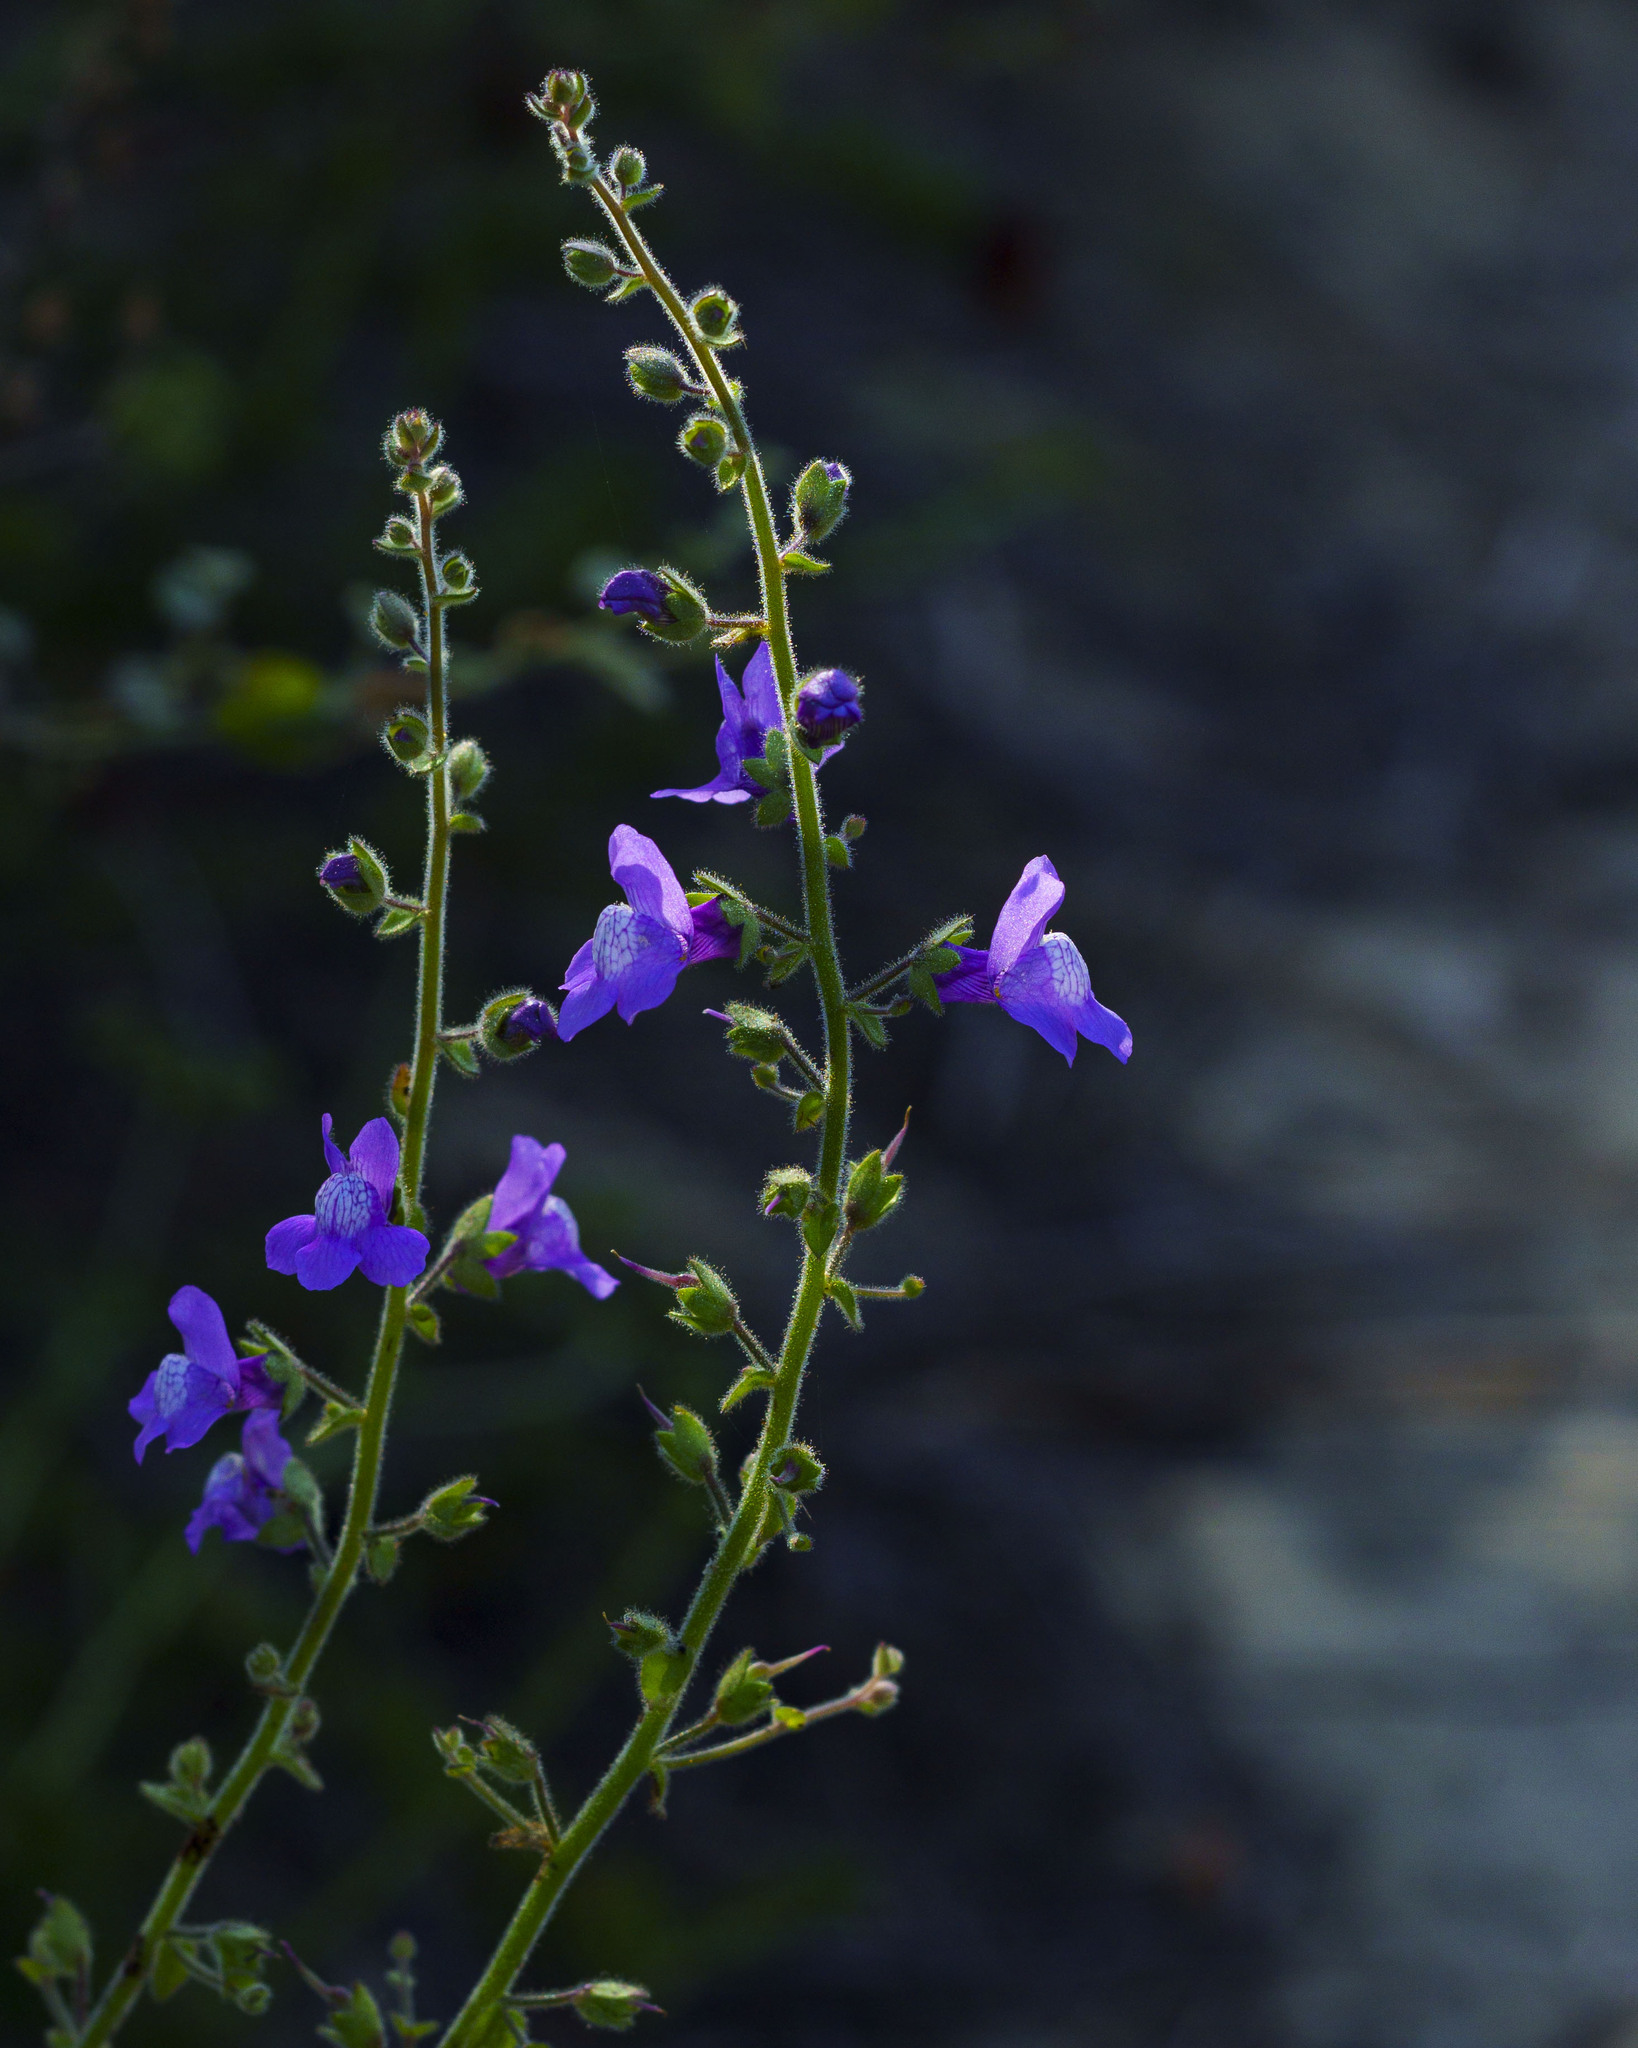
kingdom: Plantae
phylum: Tracheophyta
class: Magnoliopsida
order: Lamiales
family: Plantaginaceae
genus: Sairocarpus
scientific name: Sairocarpus nuttallianus
